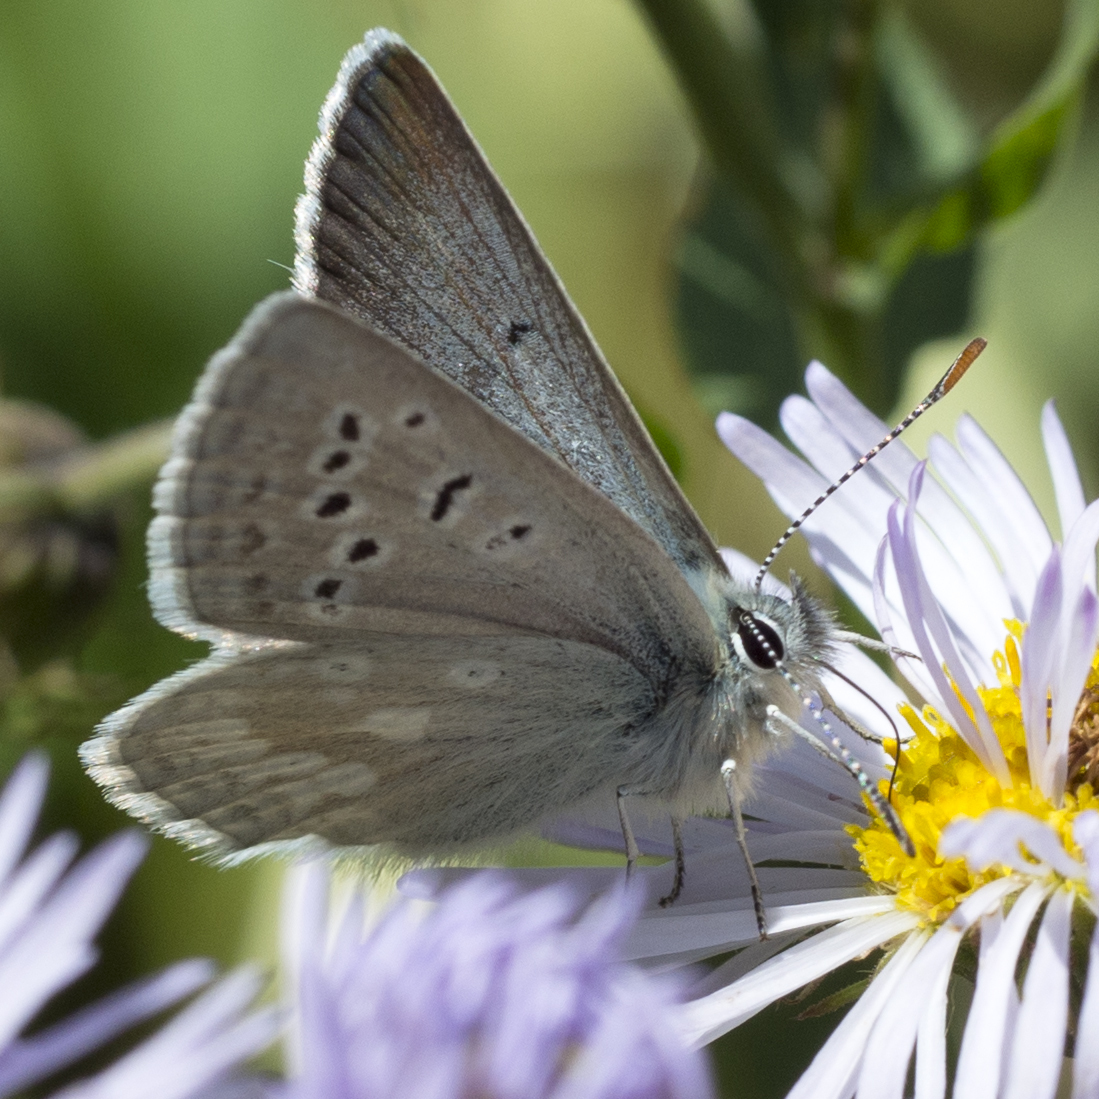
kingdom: Animalia
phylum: Arthropoda
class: Insecta
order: Lepidoptera
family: Lycaenidae
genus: Agriades
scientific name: Agriades glandon
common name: Glandon blue
